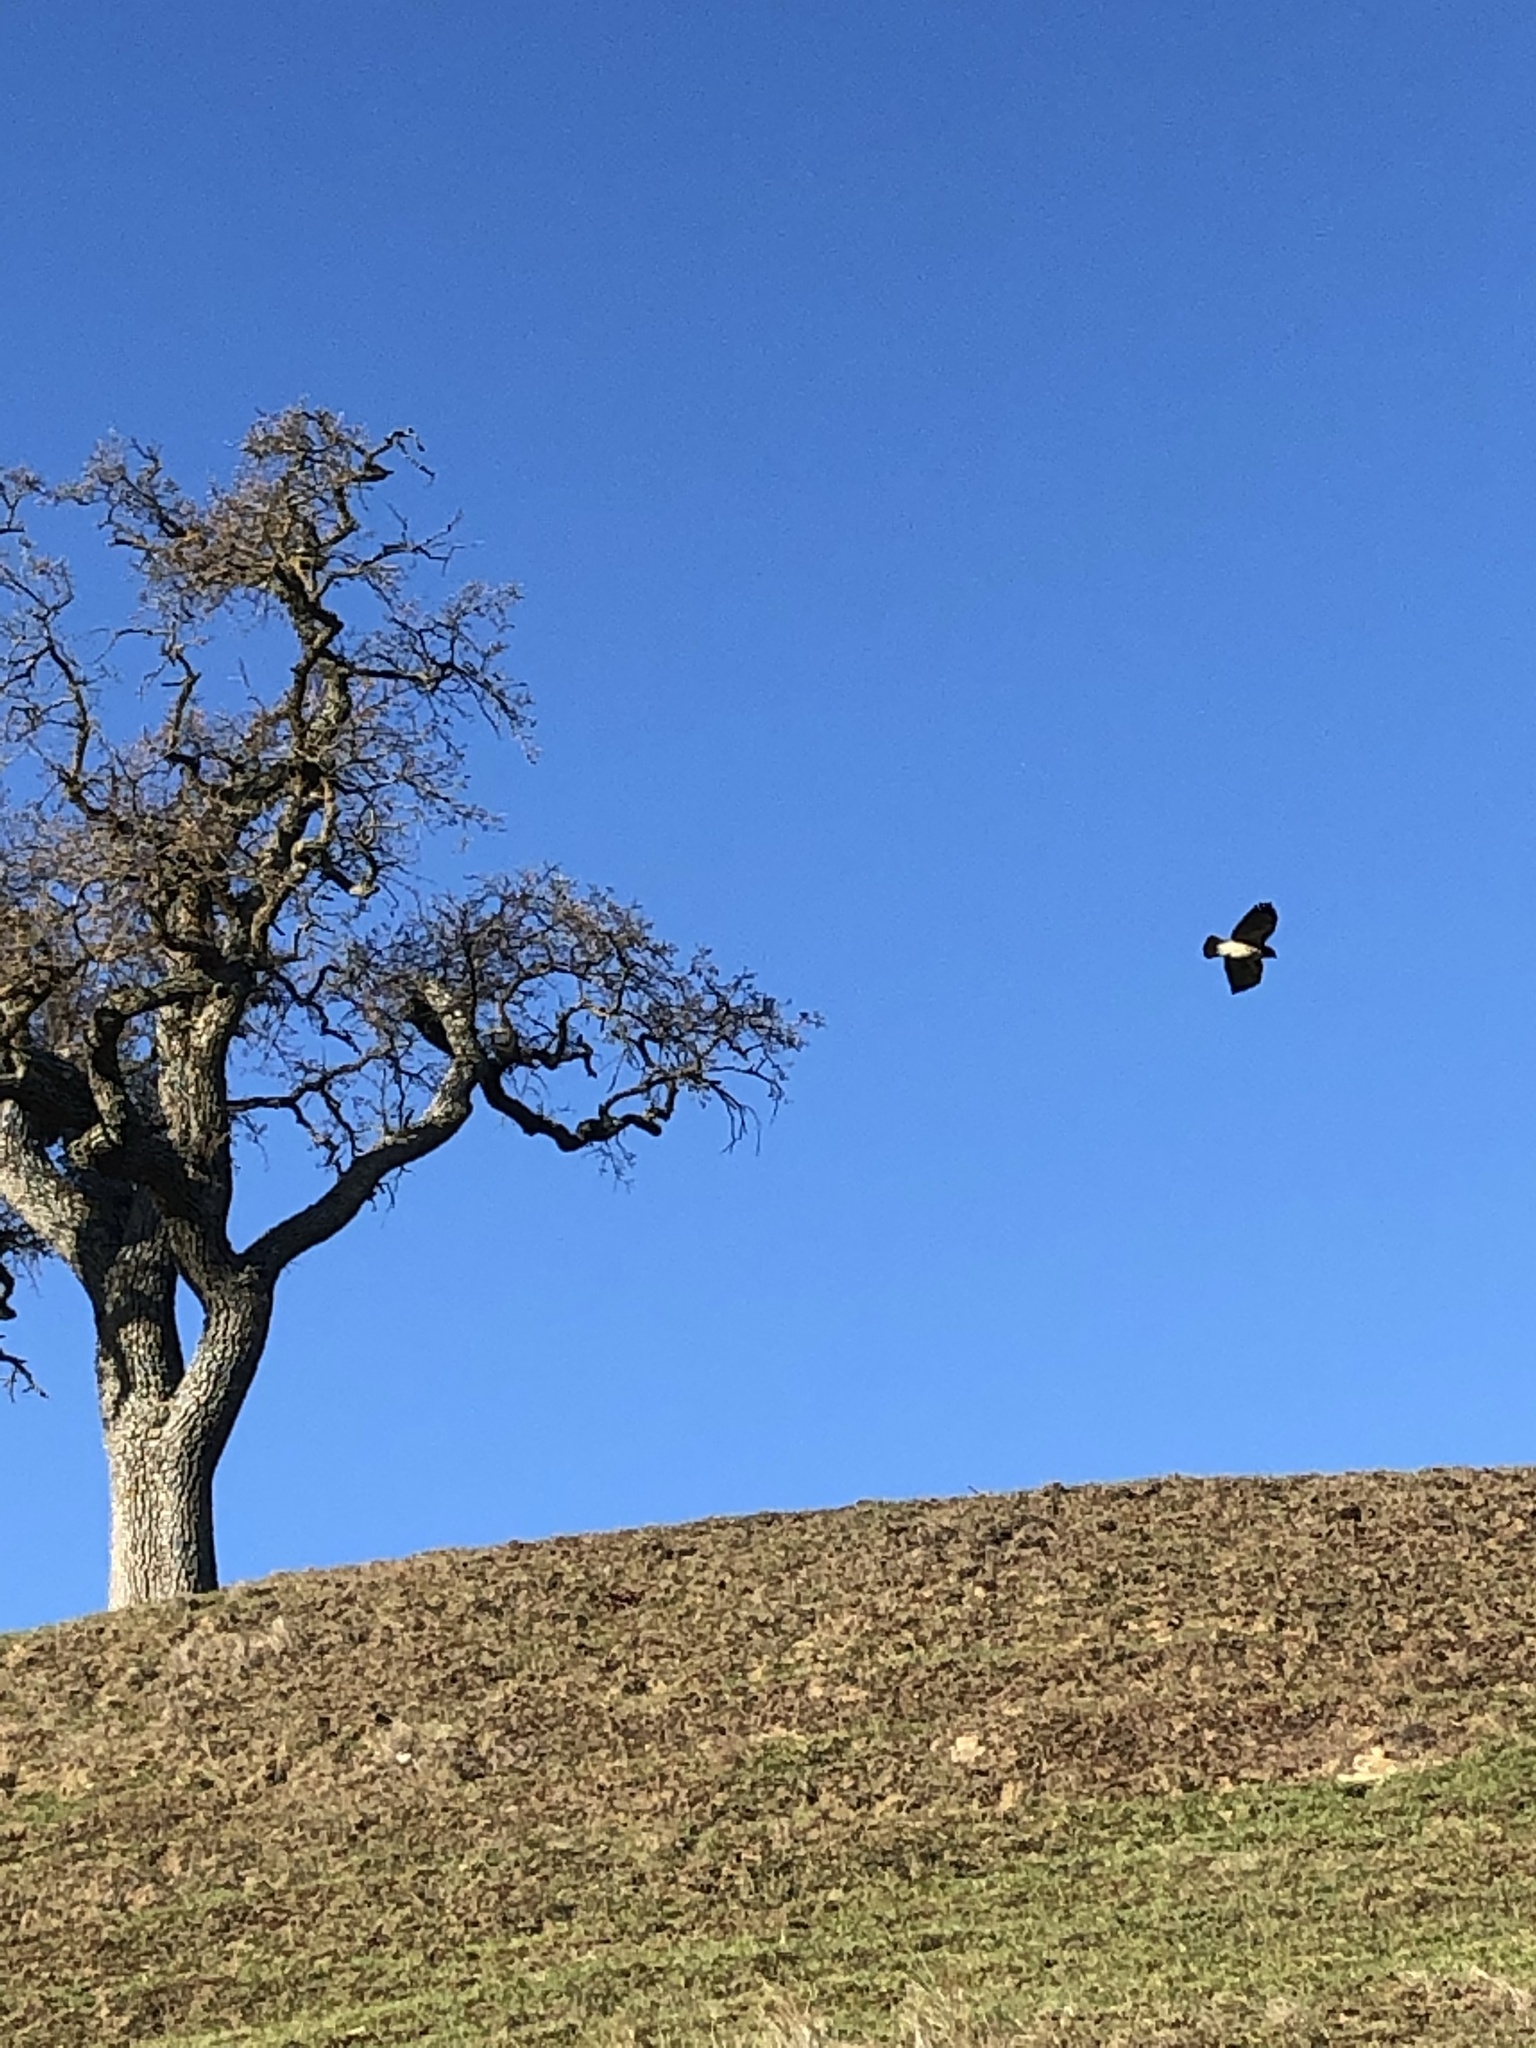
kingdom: Animalia
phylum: Chordata
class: Aves
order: Accipitriformes
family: Accipitridae
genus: Buteo
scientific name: Buteo jamaicensis
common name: Red-tailed hawk
